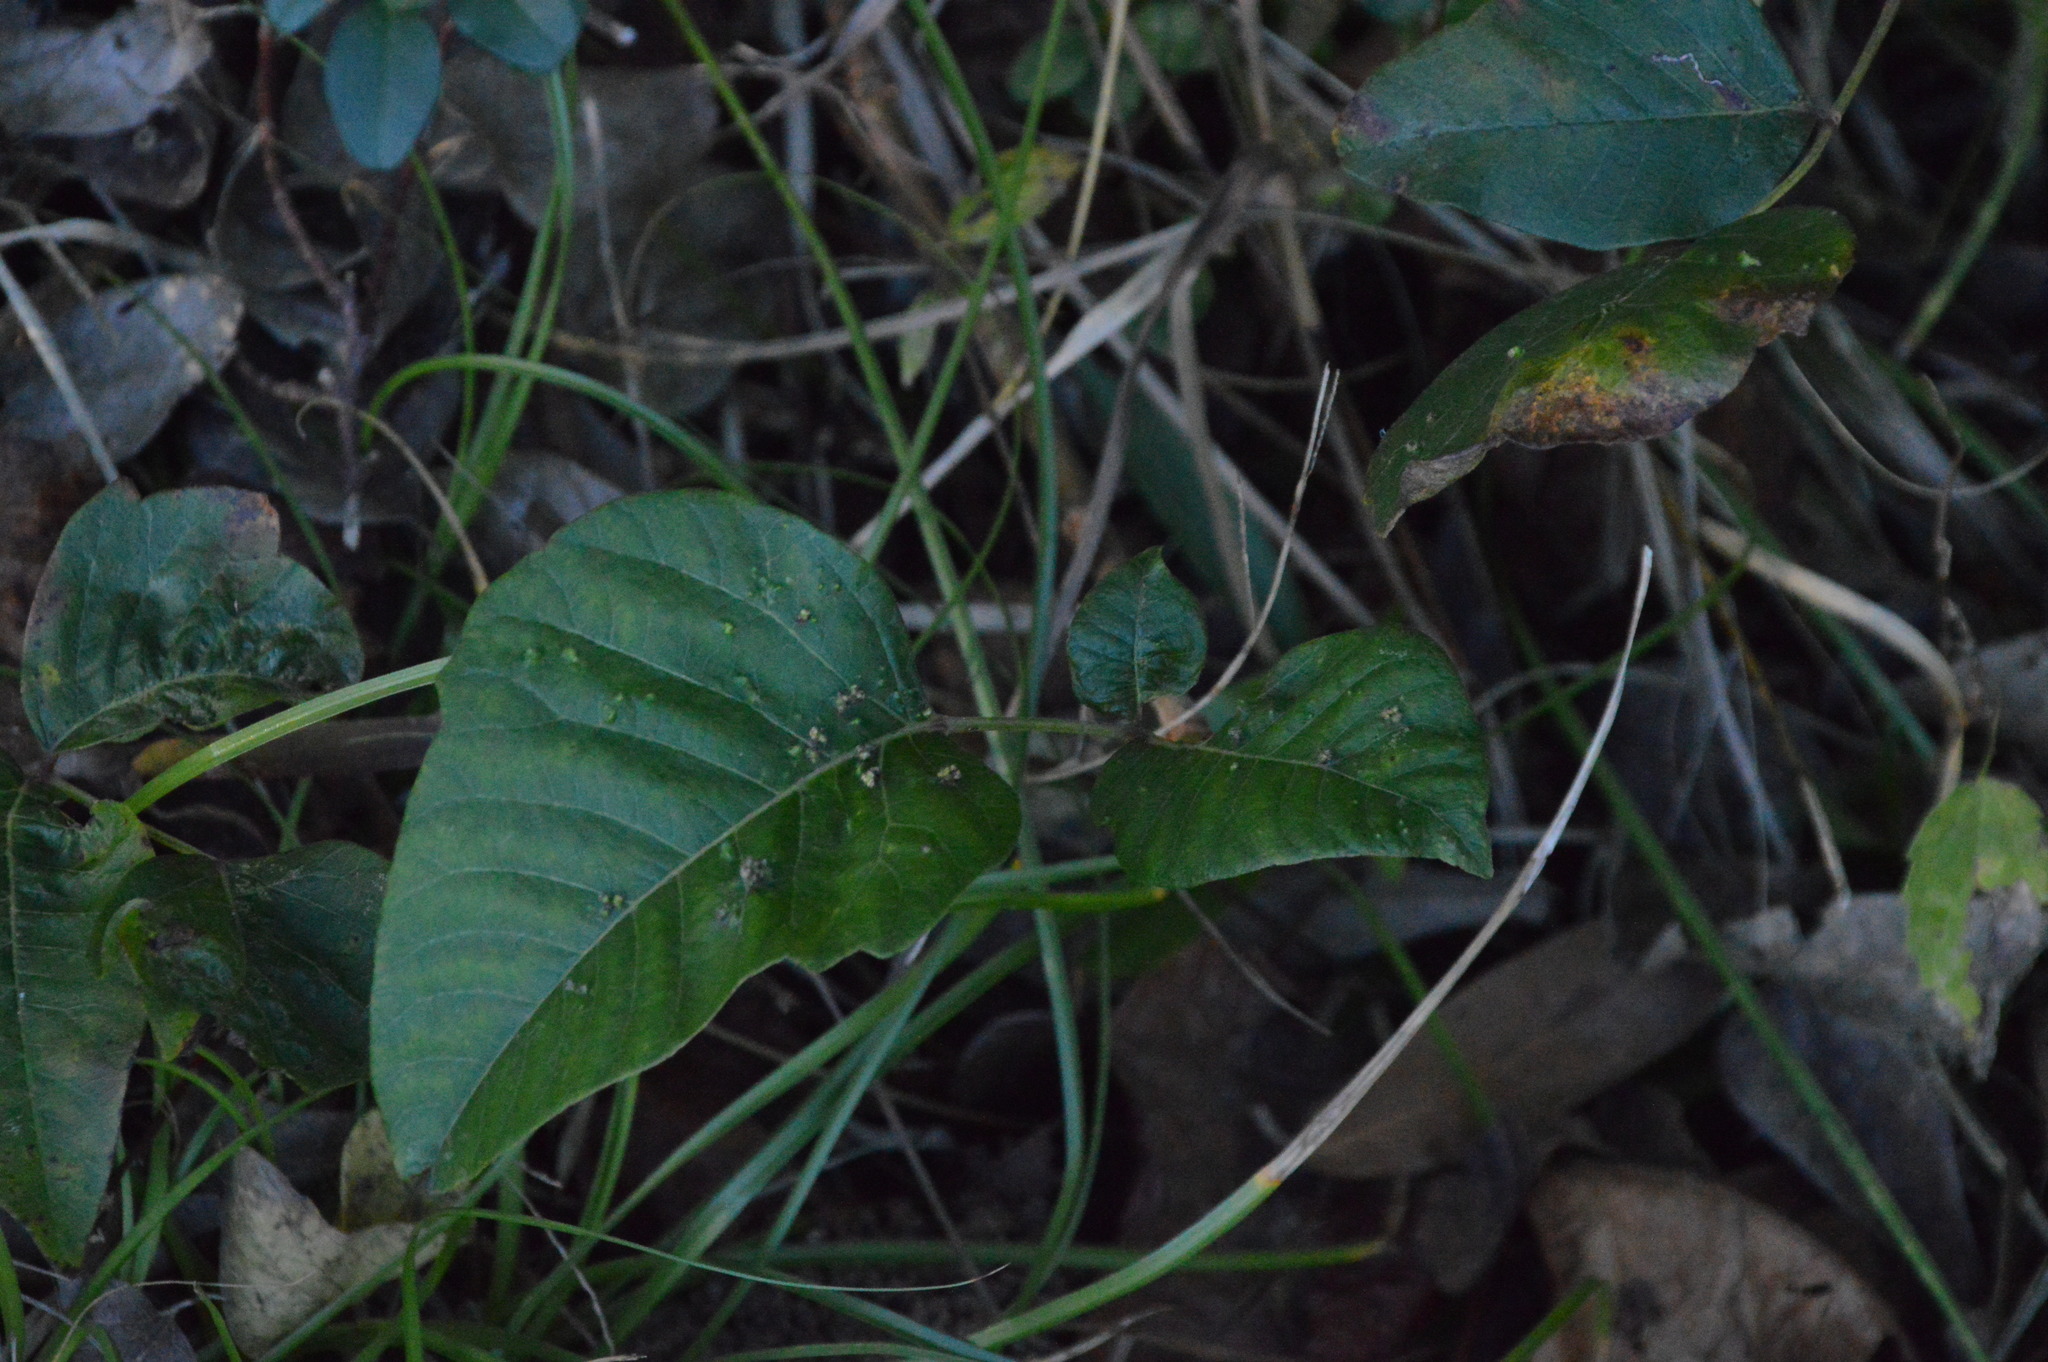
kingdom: Animalia
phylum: Arthropoda
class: Arachnida
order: Trombidiformes
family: Eriophyidae
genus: Aculops
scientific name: Aculops
